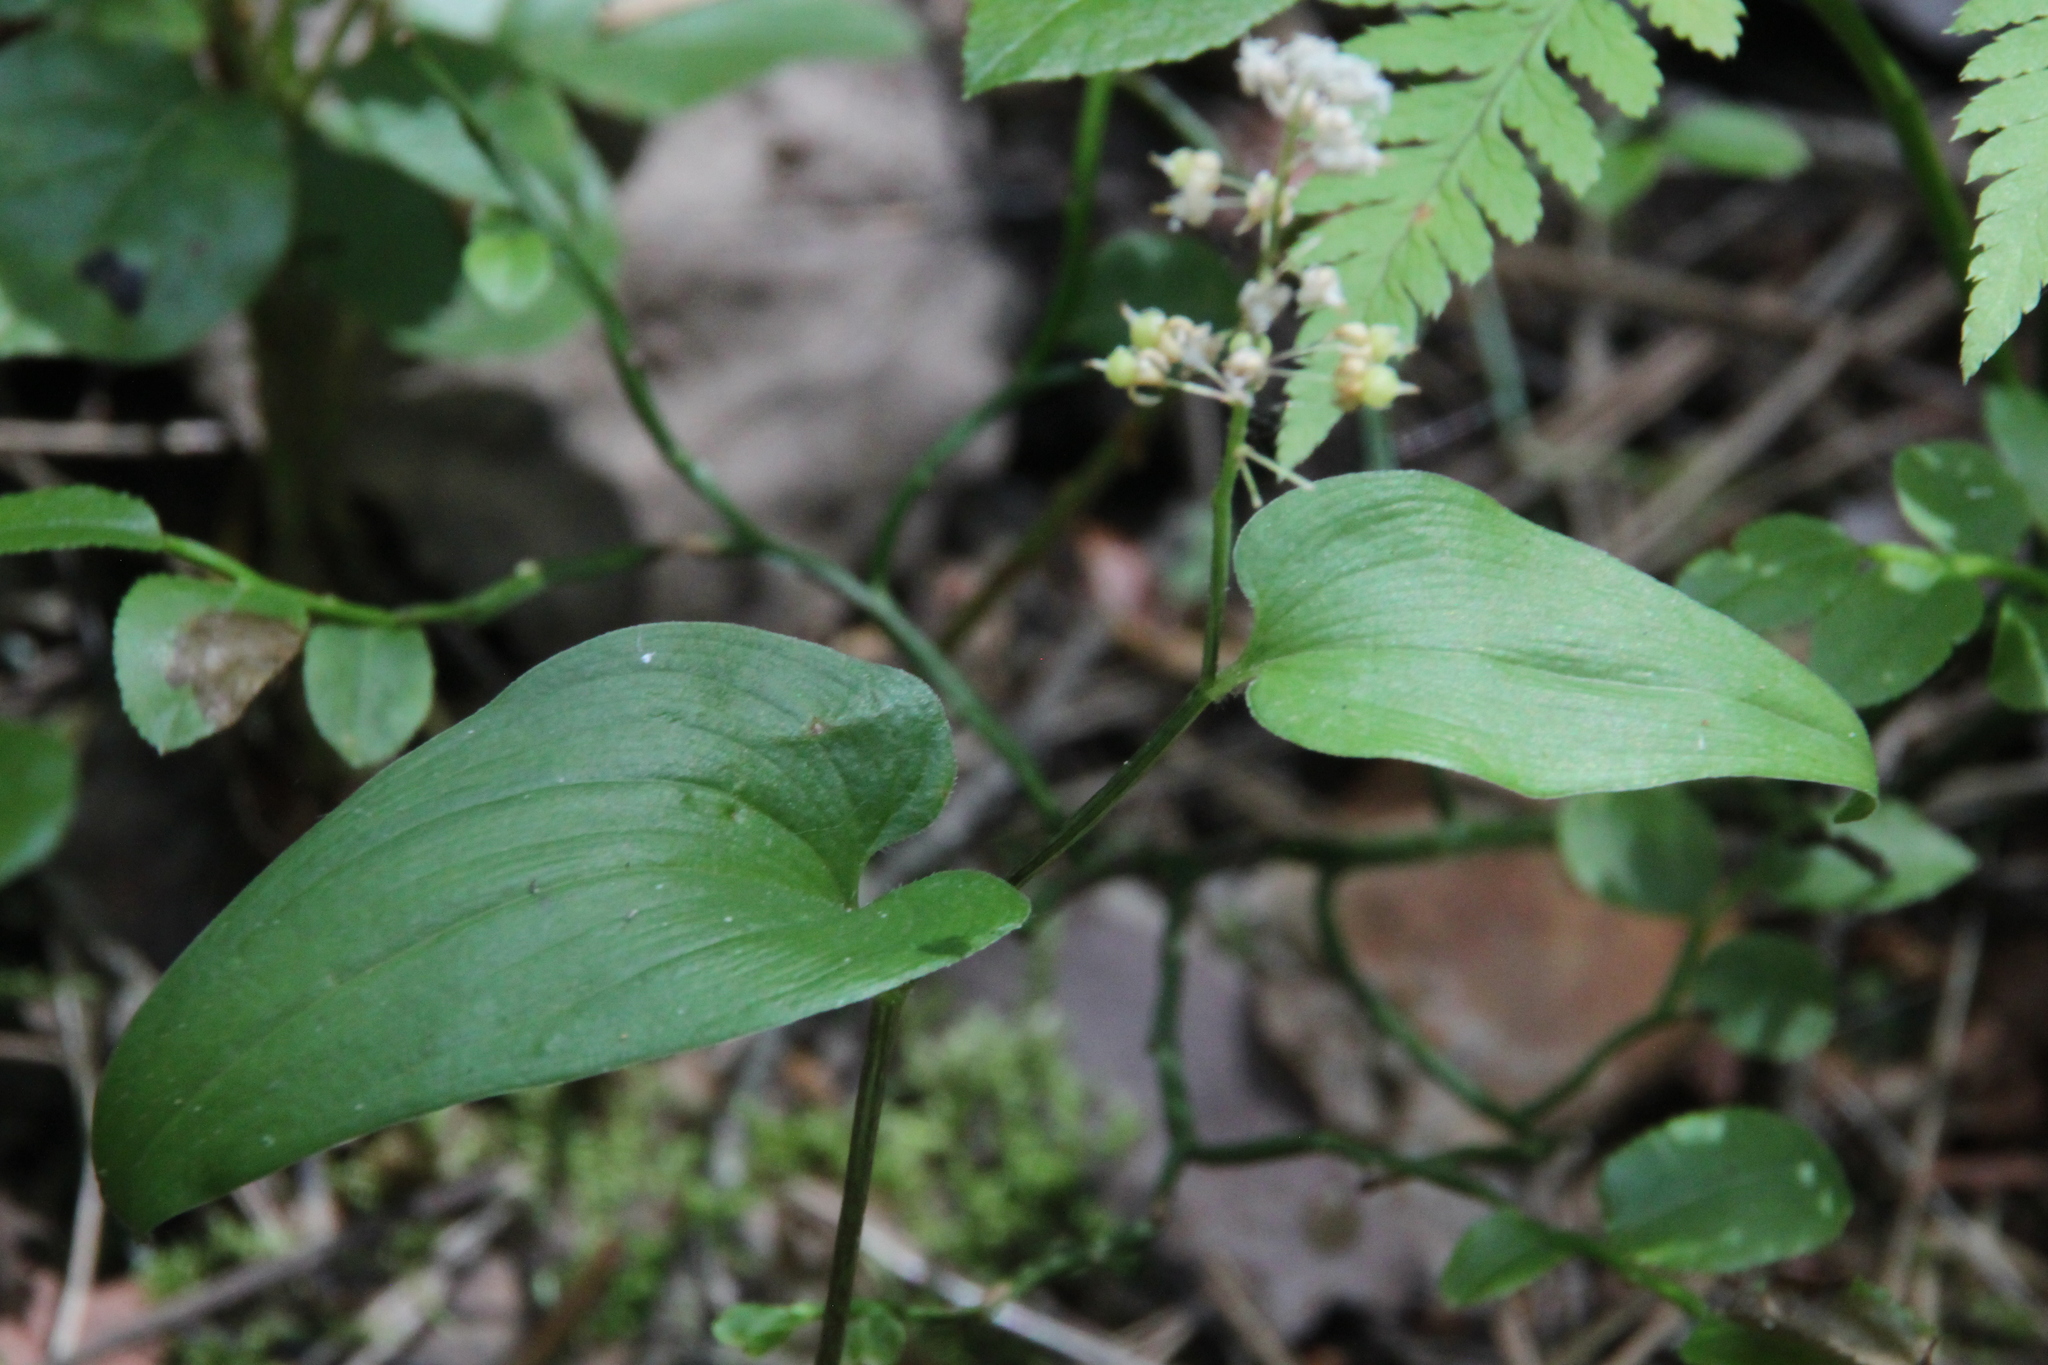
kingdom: Plantae
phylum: Tracheophyta
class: Liliopsida
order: Asparagales
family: Asparagaceae
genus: Maianthemum
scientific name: Maianthemum bifolium
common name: May lily
